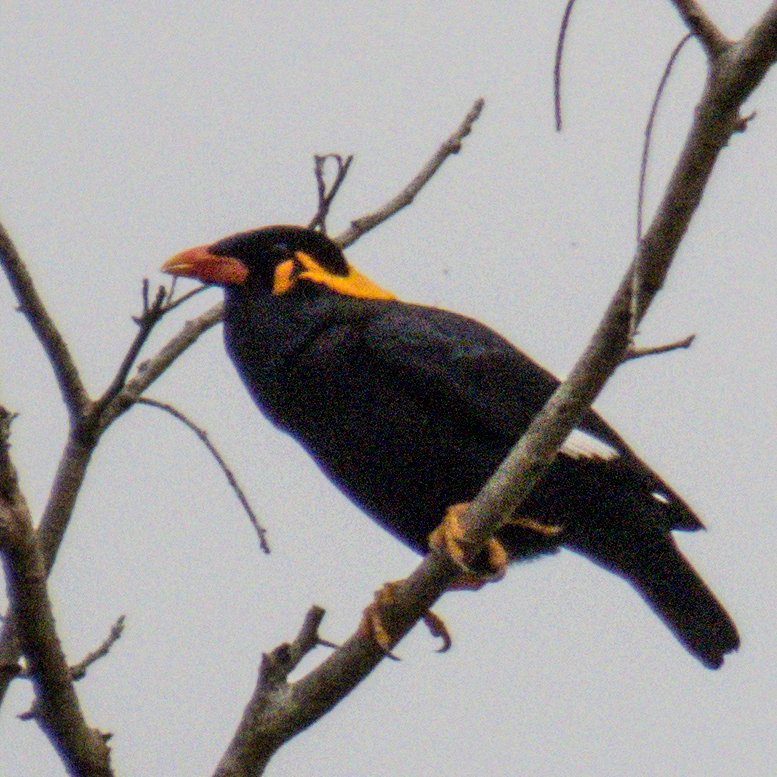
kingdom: Animalia
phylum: Chordata
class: Aves
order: Passeriformes
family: Sturnidae
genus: Gracula
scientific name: Gracula religiosa
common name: Common hill myna
